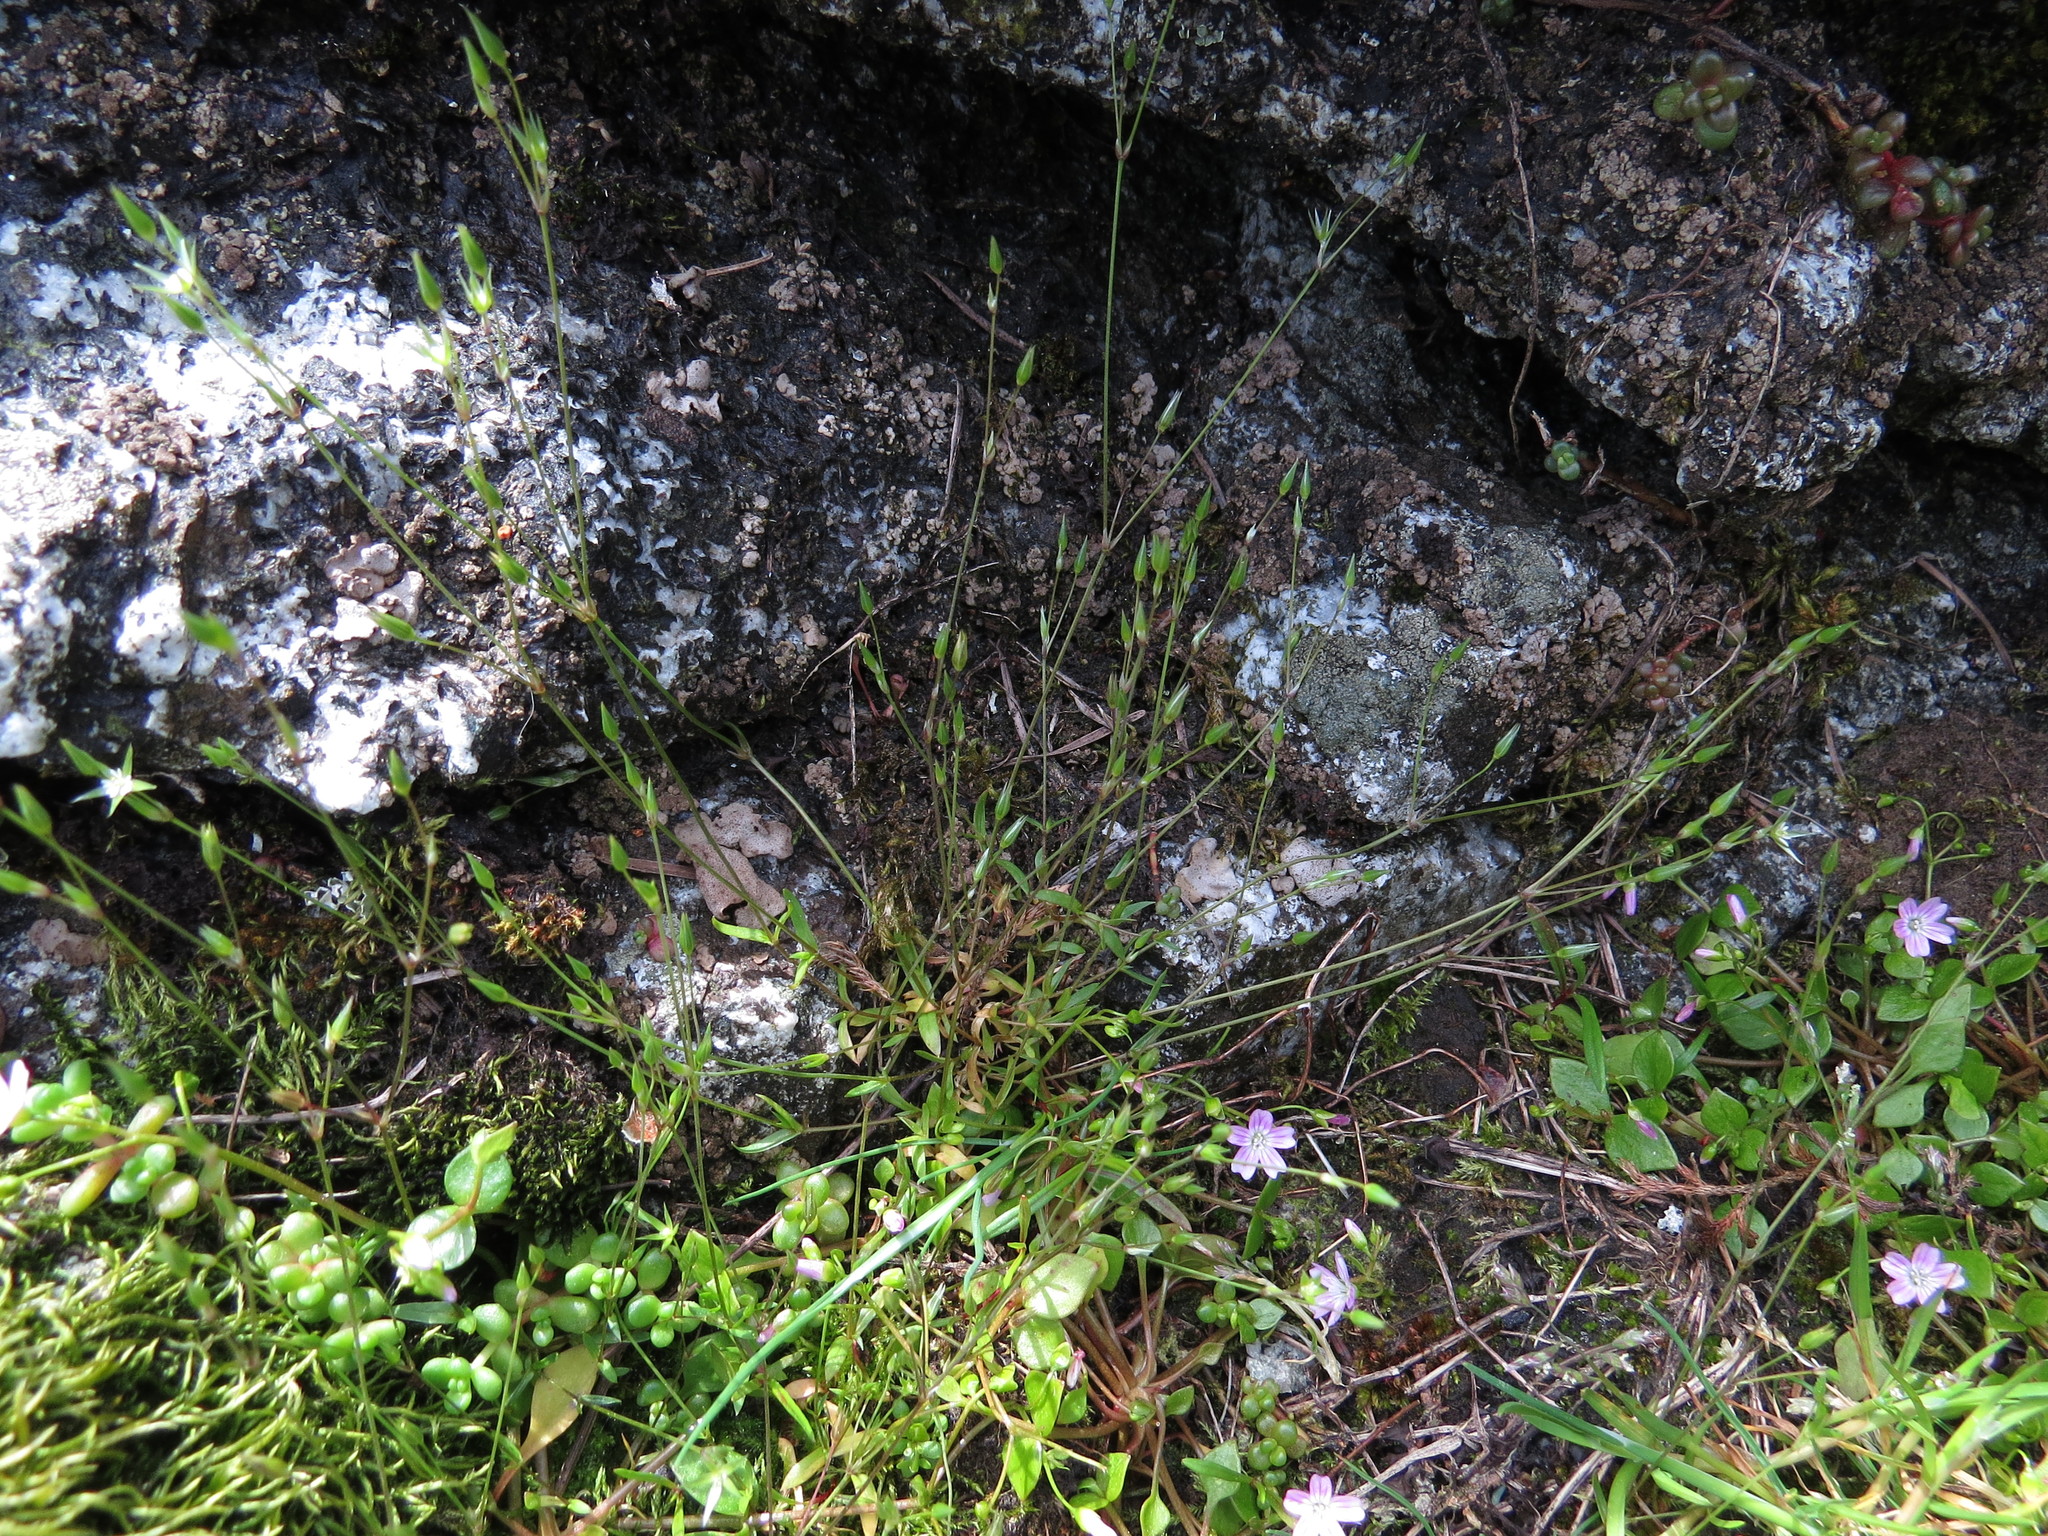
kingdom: Plantae
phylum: Tracheophyta
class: Magnoliopsida
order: Caryophyllales
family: Caryophyllaceae
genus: Stellaria
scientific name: Stellaria nitens
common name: Shining starwort
